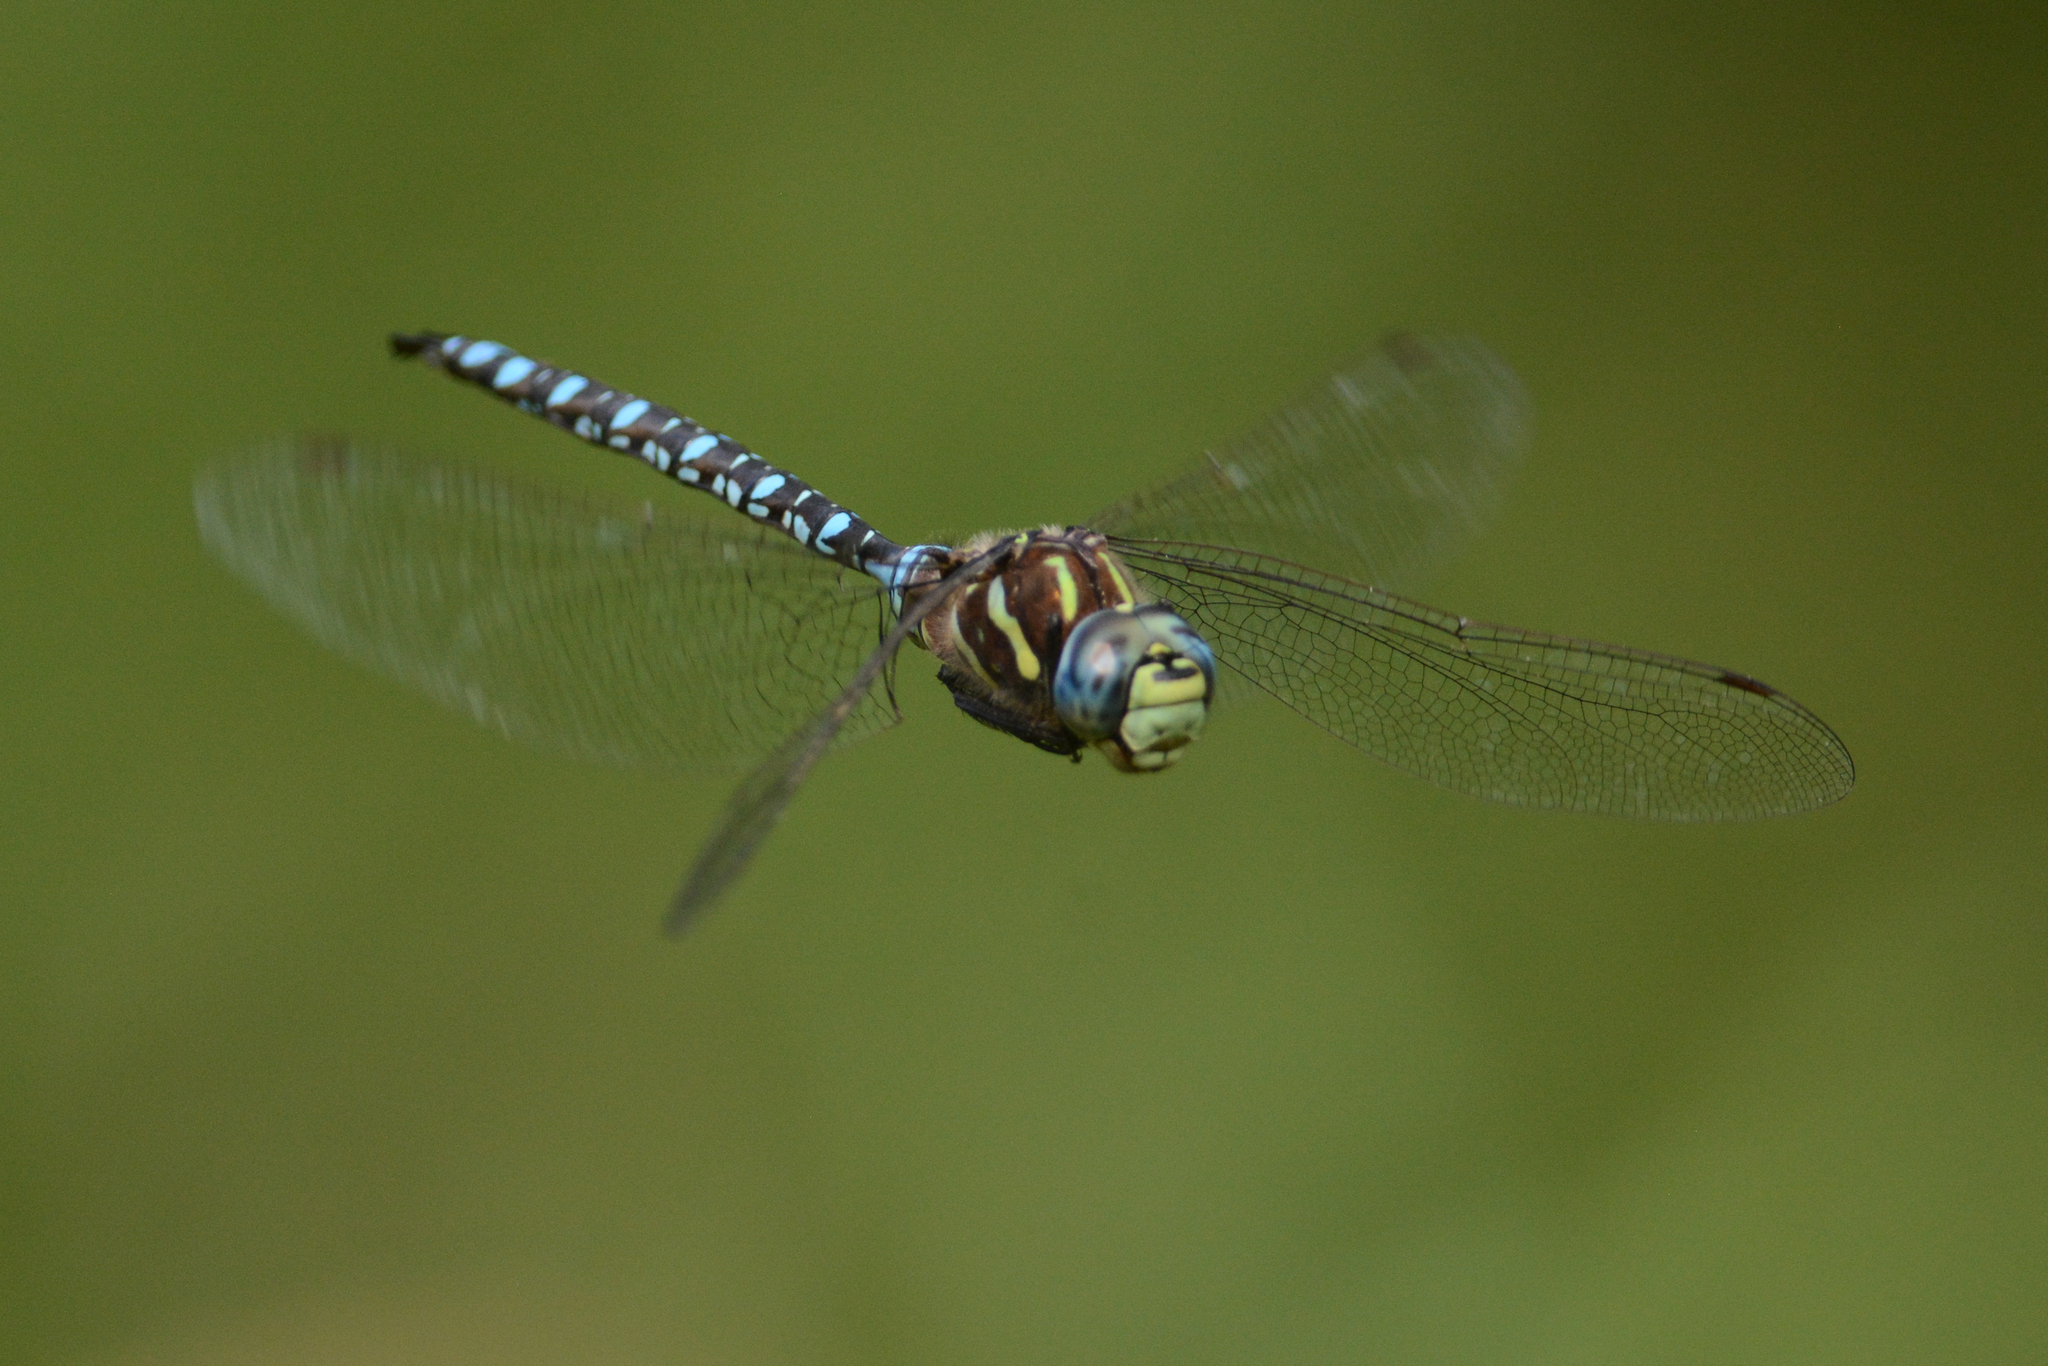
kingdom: Animalia
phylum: Arthropoda
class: Insecta
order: Odonata
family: Aeshnidae
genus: Aeshna
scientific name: Aeshna palmata
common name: Paddle-tailed darner
